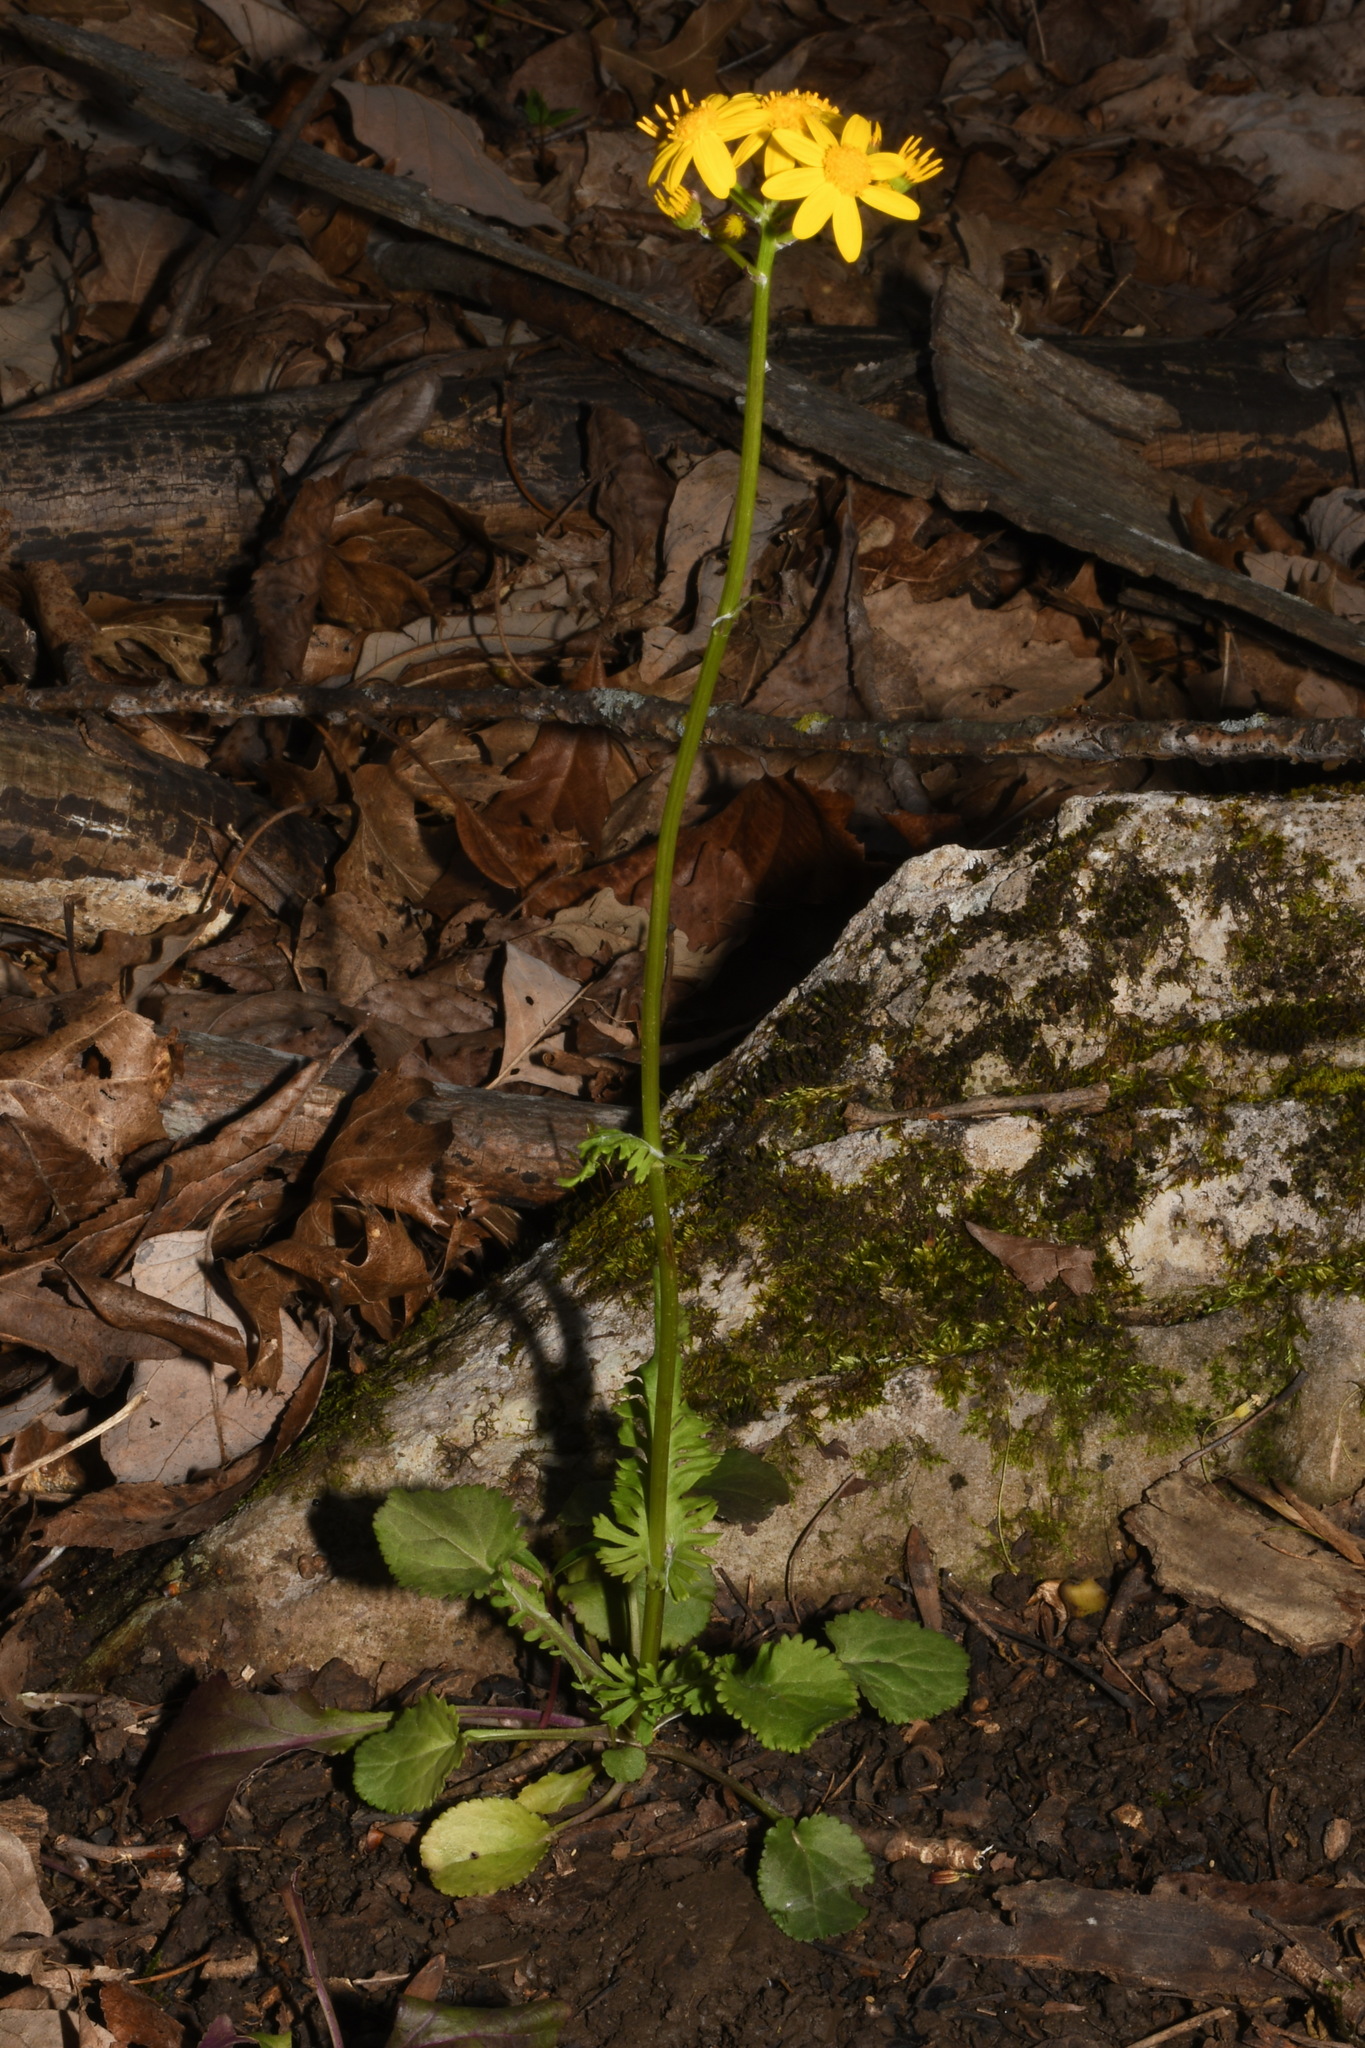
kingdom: Plantae
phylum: Tracheophyta
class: Magnoliopsida
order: Asterales
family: Asteraceae
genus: Packera
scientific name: Packera obovata
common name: Round-leaf ragwort
